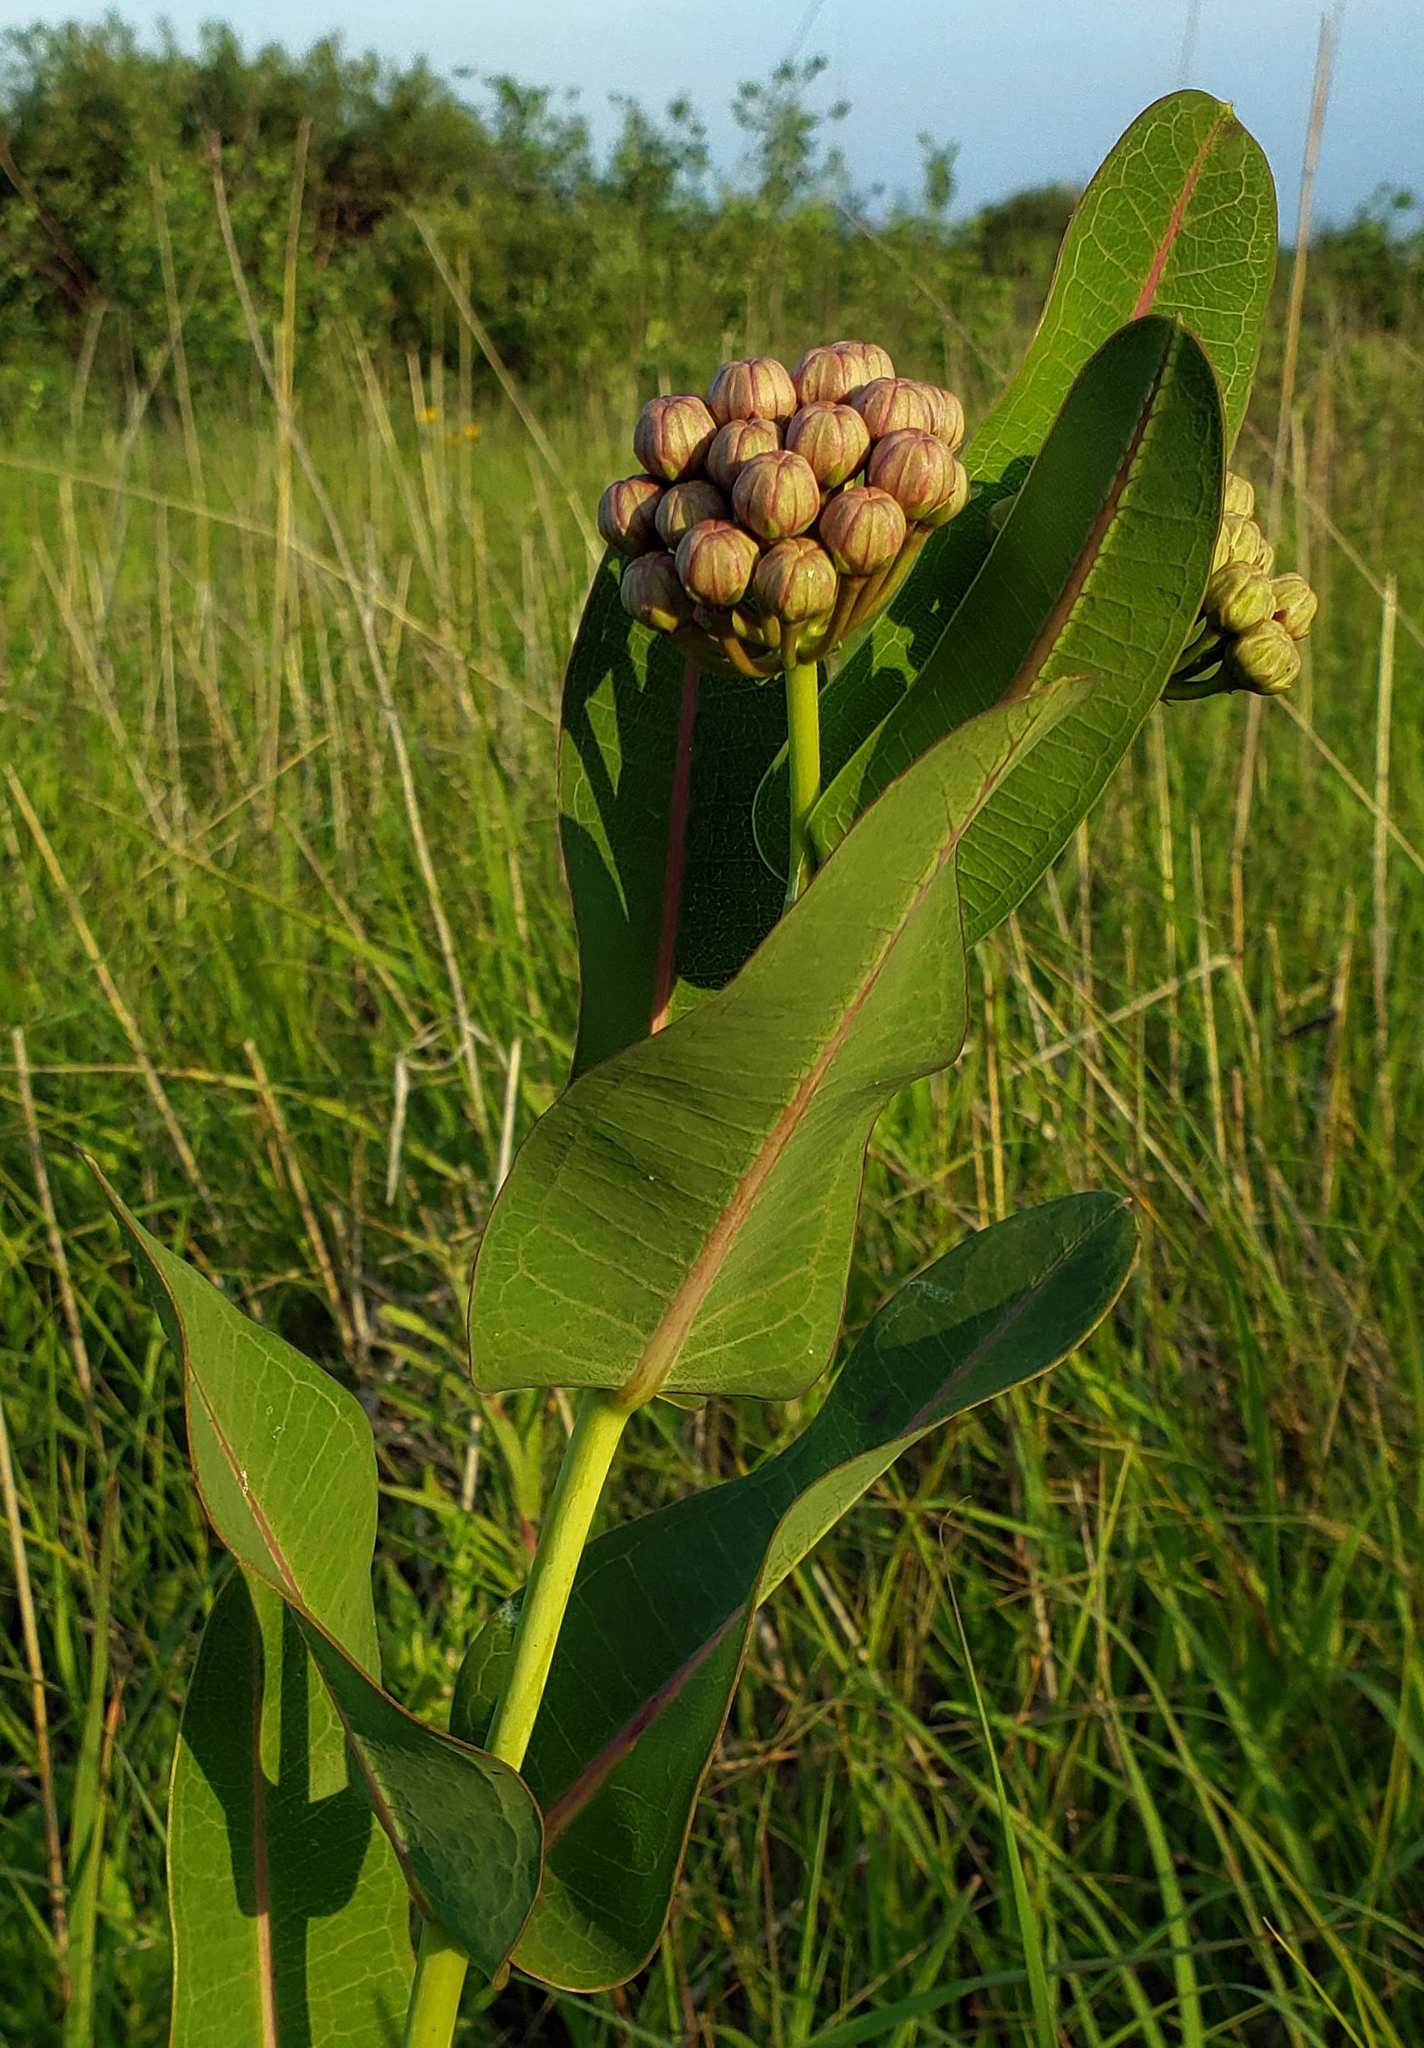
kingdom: Plantae
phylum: Tracheophyta
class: Magnoliopsida
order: Gentianales
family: Apocynaceae
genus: Asclepias
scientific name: Asclepias sullivantii
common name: Prairie milkweed
